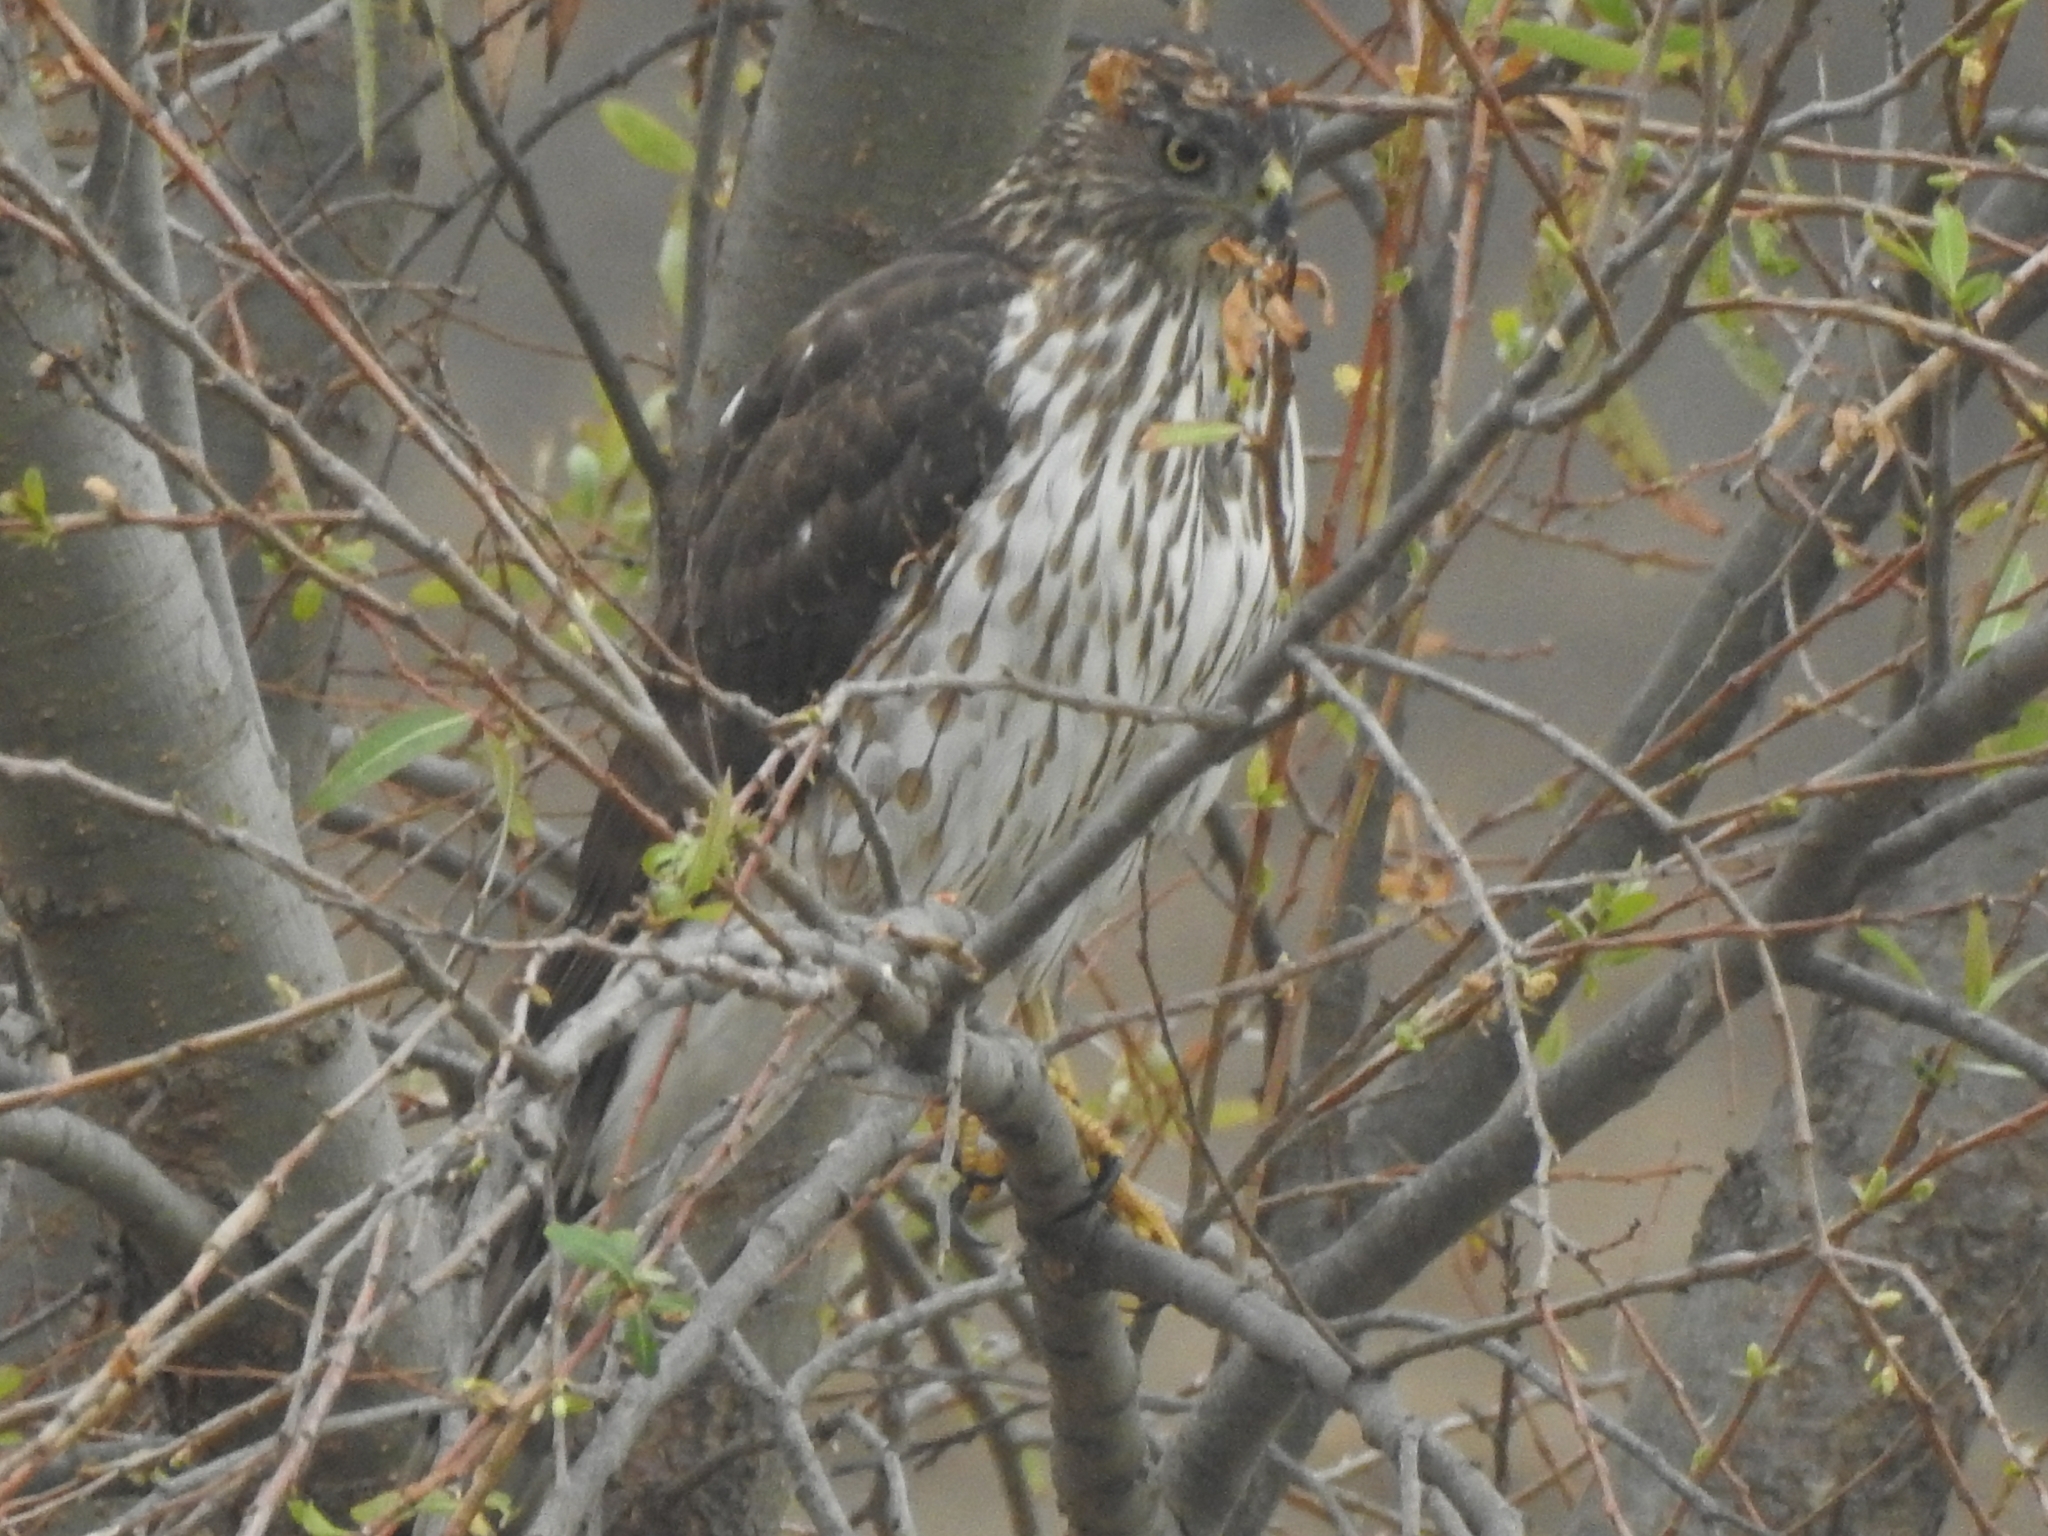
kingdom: Animalia
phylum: Chordata
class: Aves
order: Accipitriformes
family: Accipitridae
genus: Accipiter
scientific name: Accipiter cooperii
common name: Cooper's hawk
